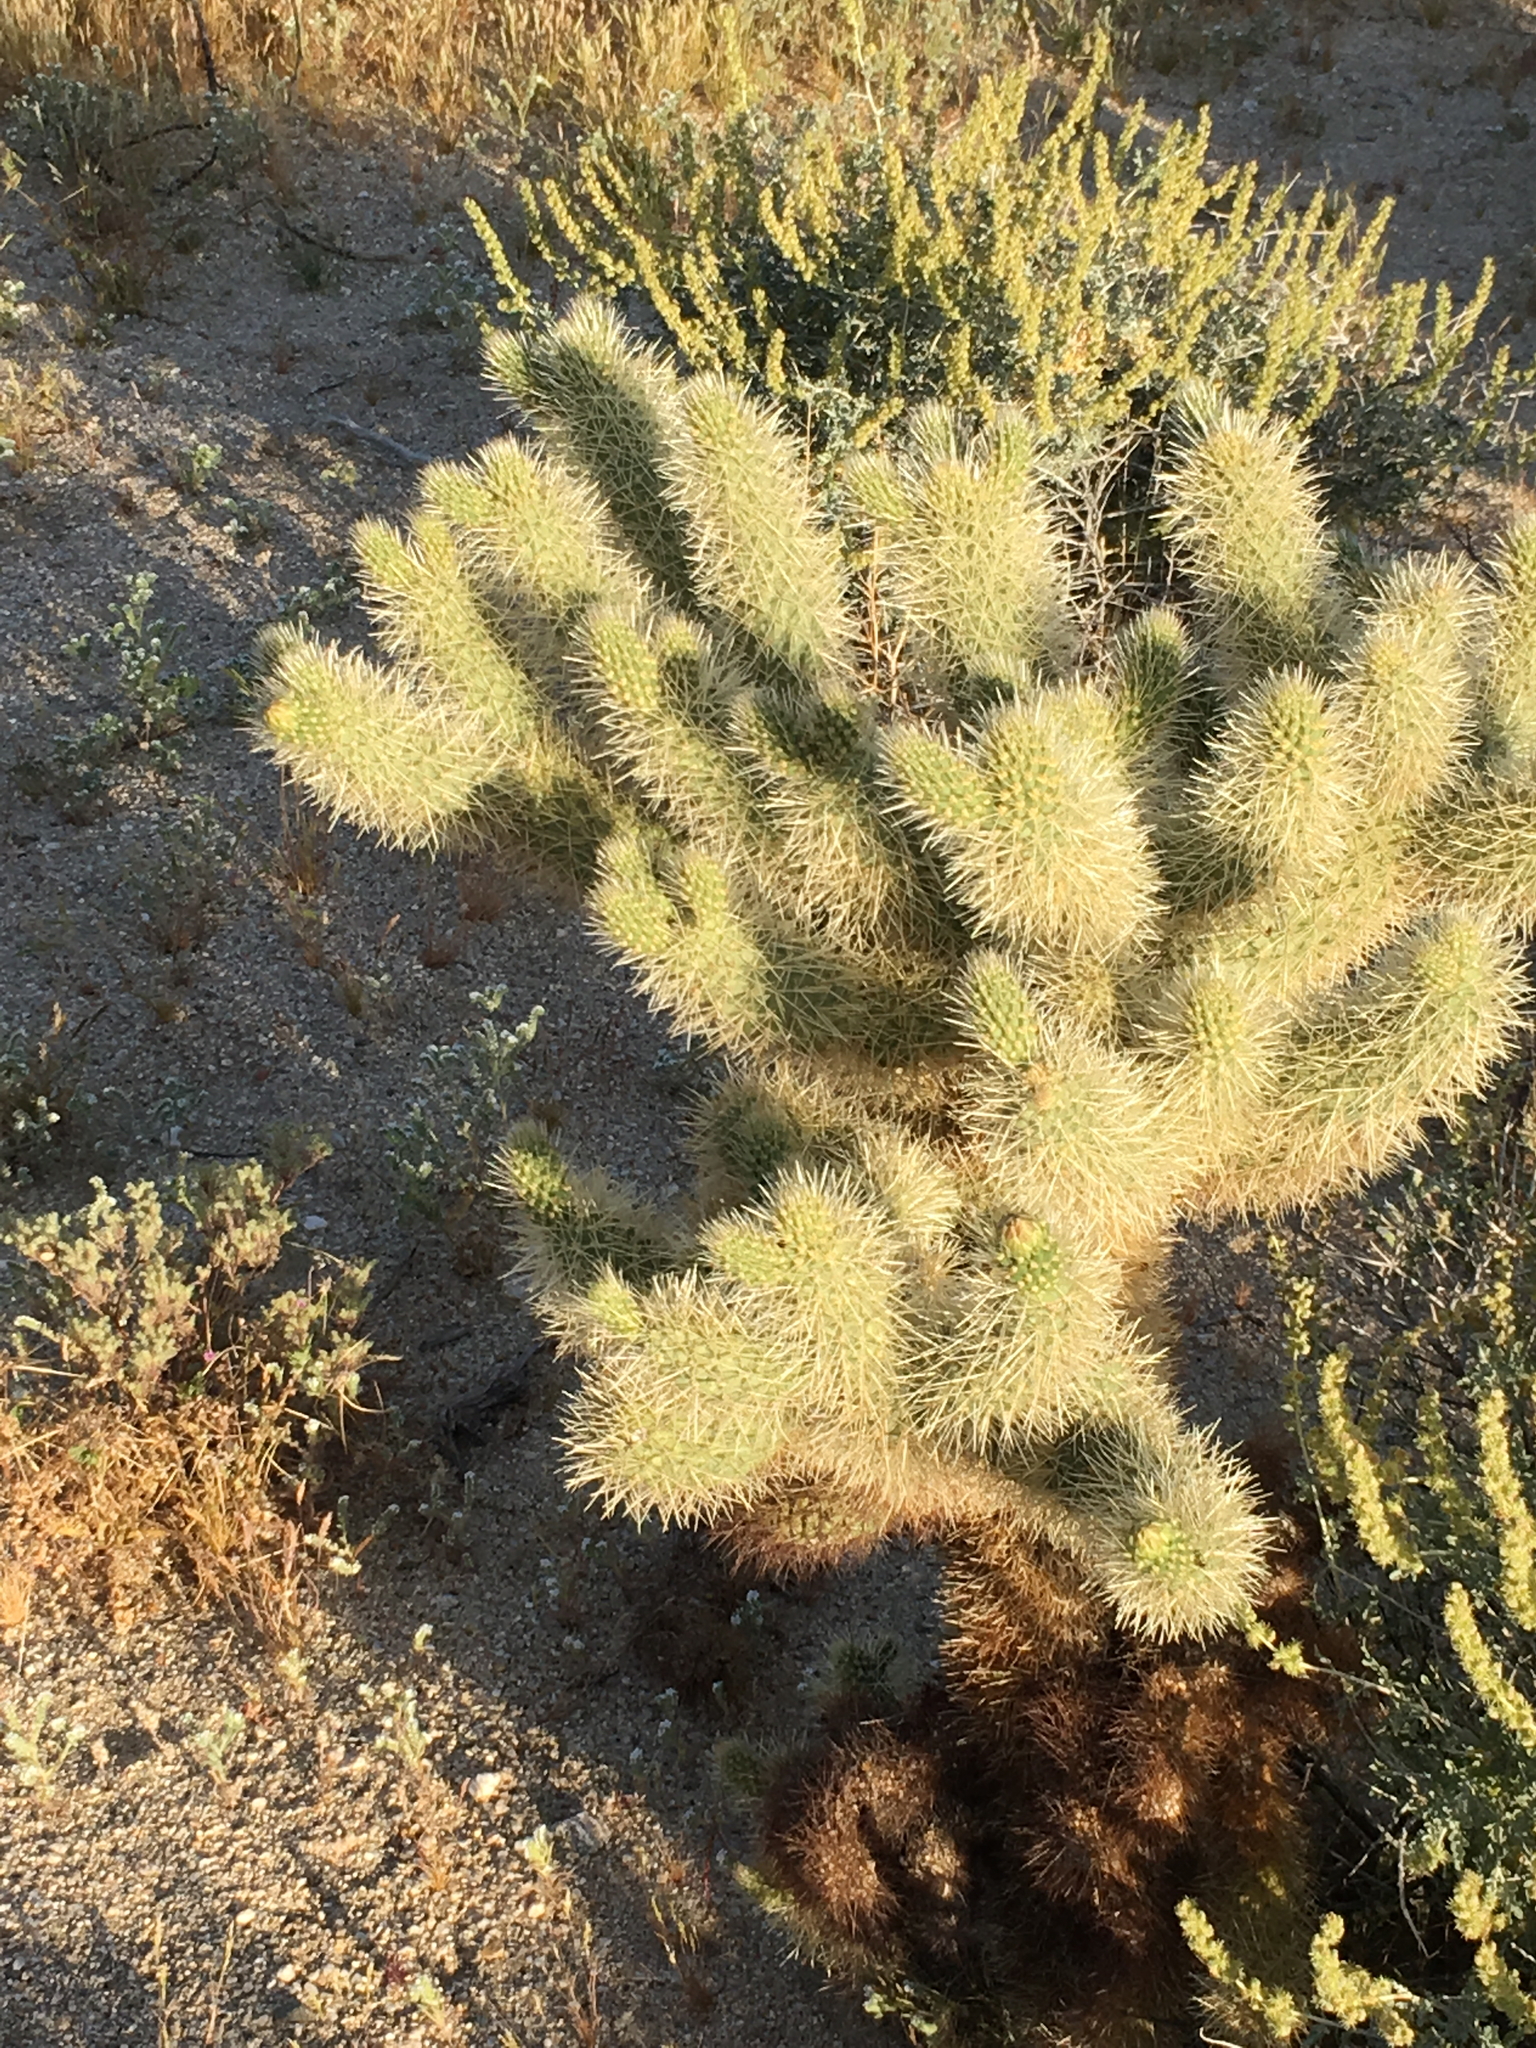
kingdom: Plantae
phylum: Tracheophyta
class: Magnoliopsida
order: Caryophyllales
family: Cactaceae
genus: Cylindropuntia
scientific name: Cylindropuntia fosbergii
